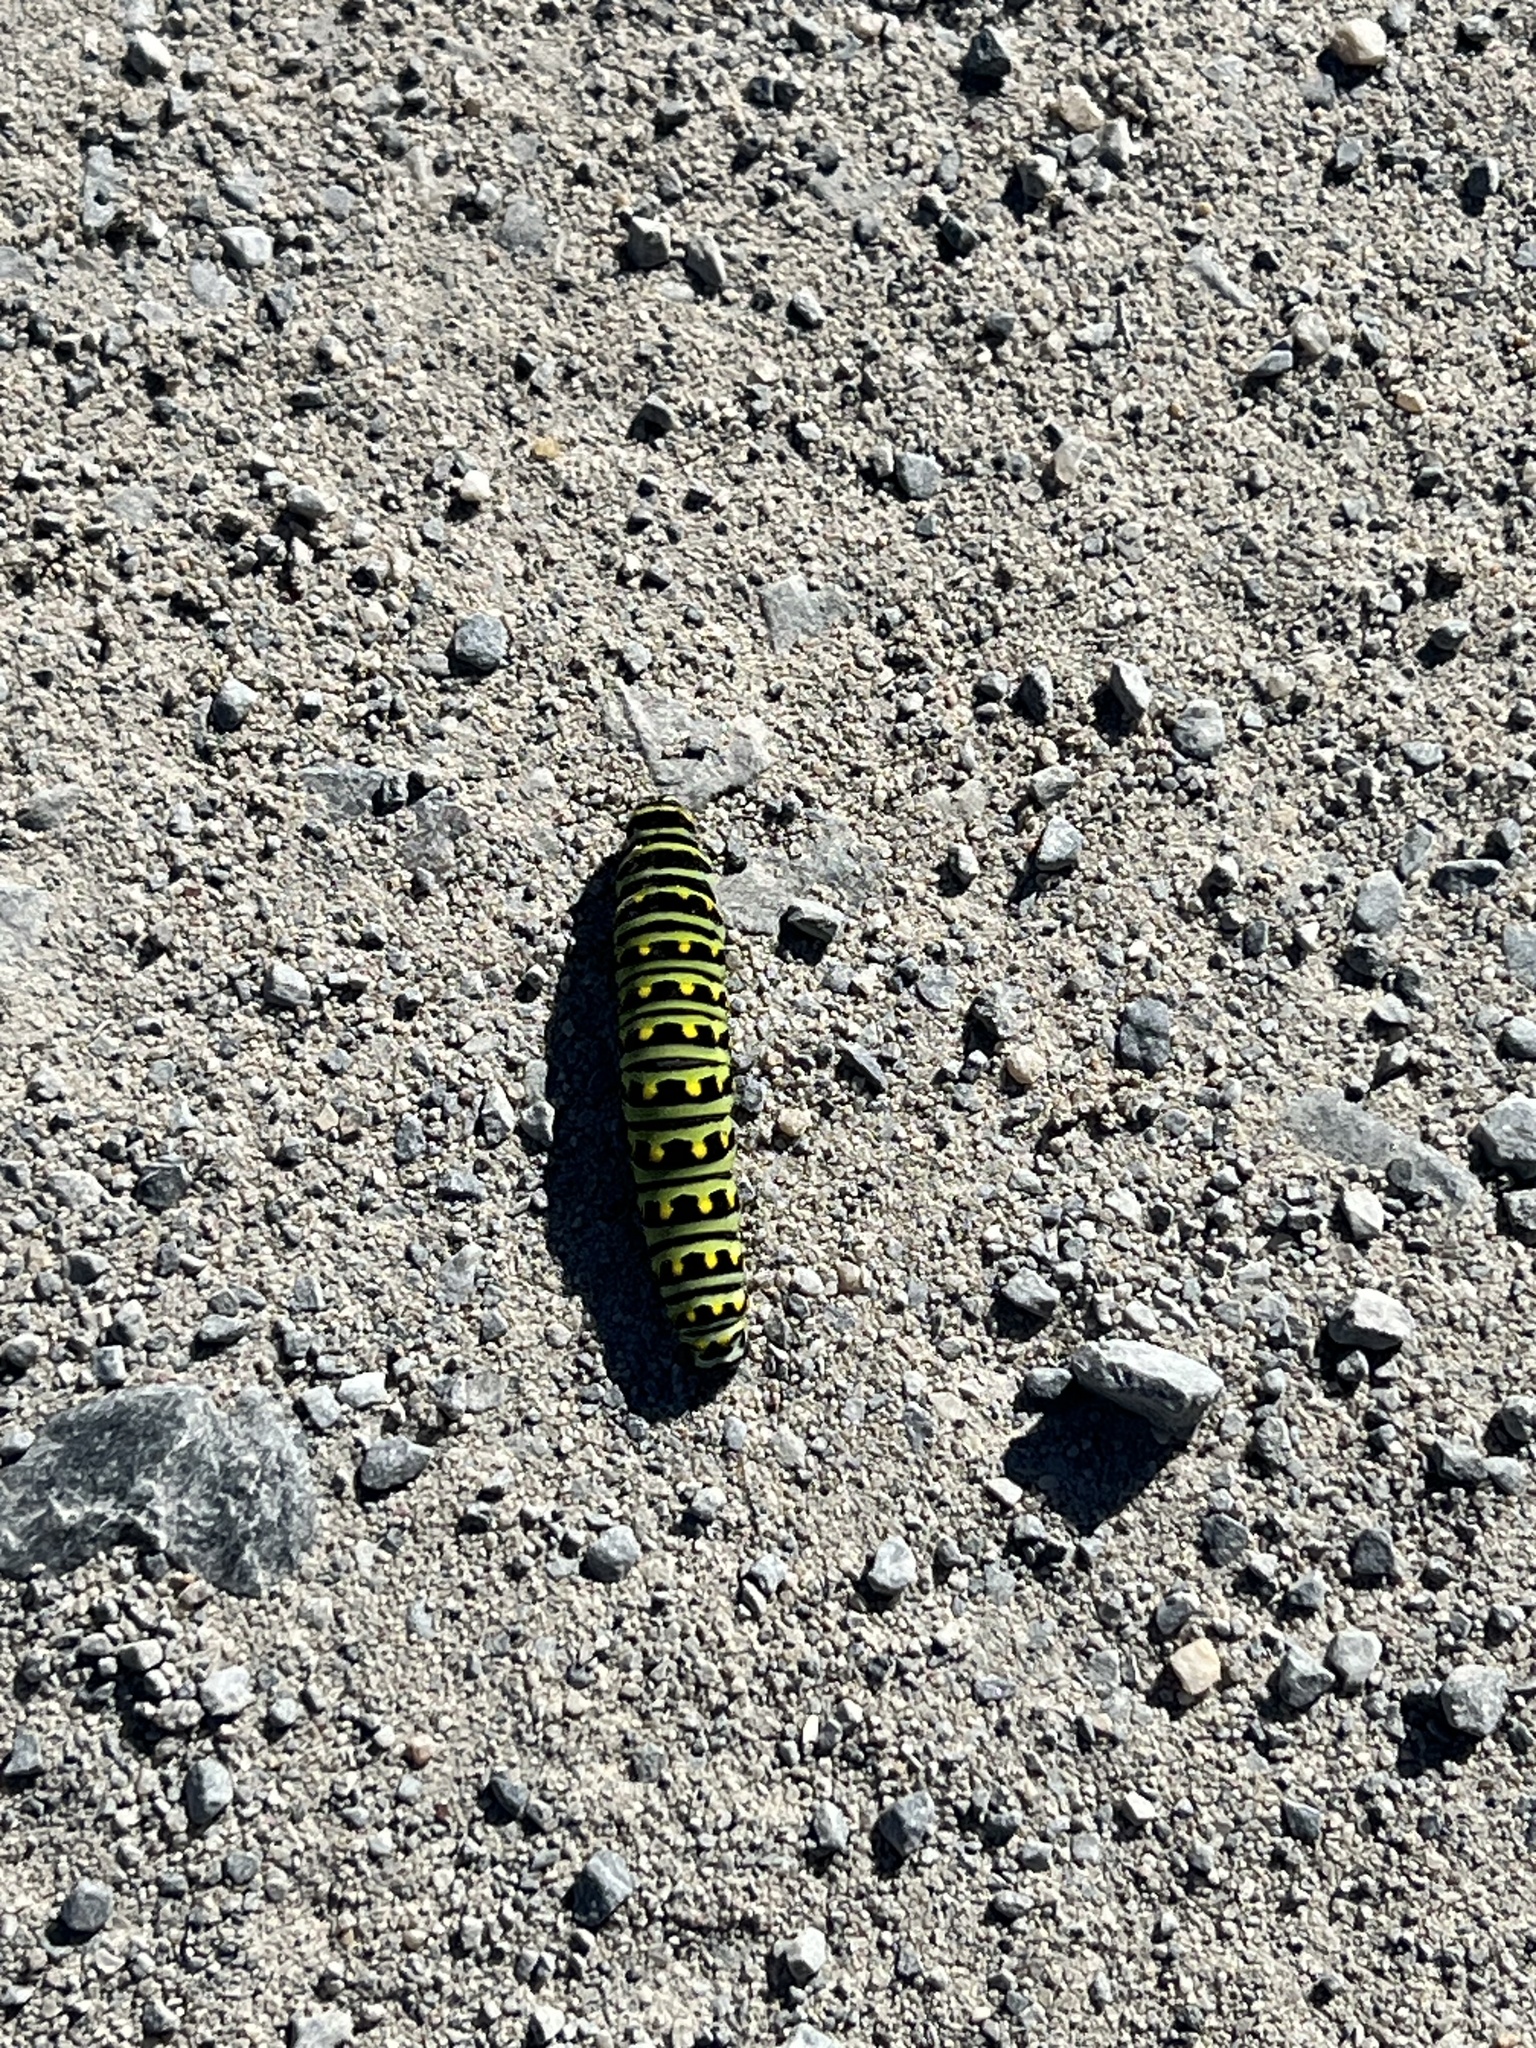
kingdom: Animalia
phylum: Arthropoda
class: Insecta
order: Lepidoptera
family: Papilionidae
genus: Papilio
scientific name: Papilio polyxenes
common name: Black swallowtail
